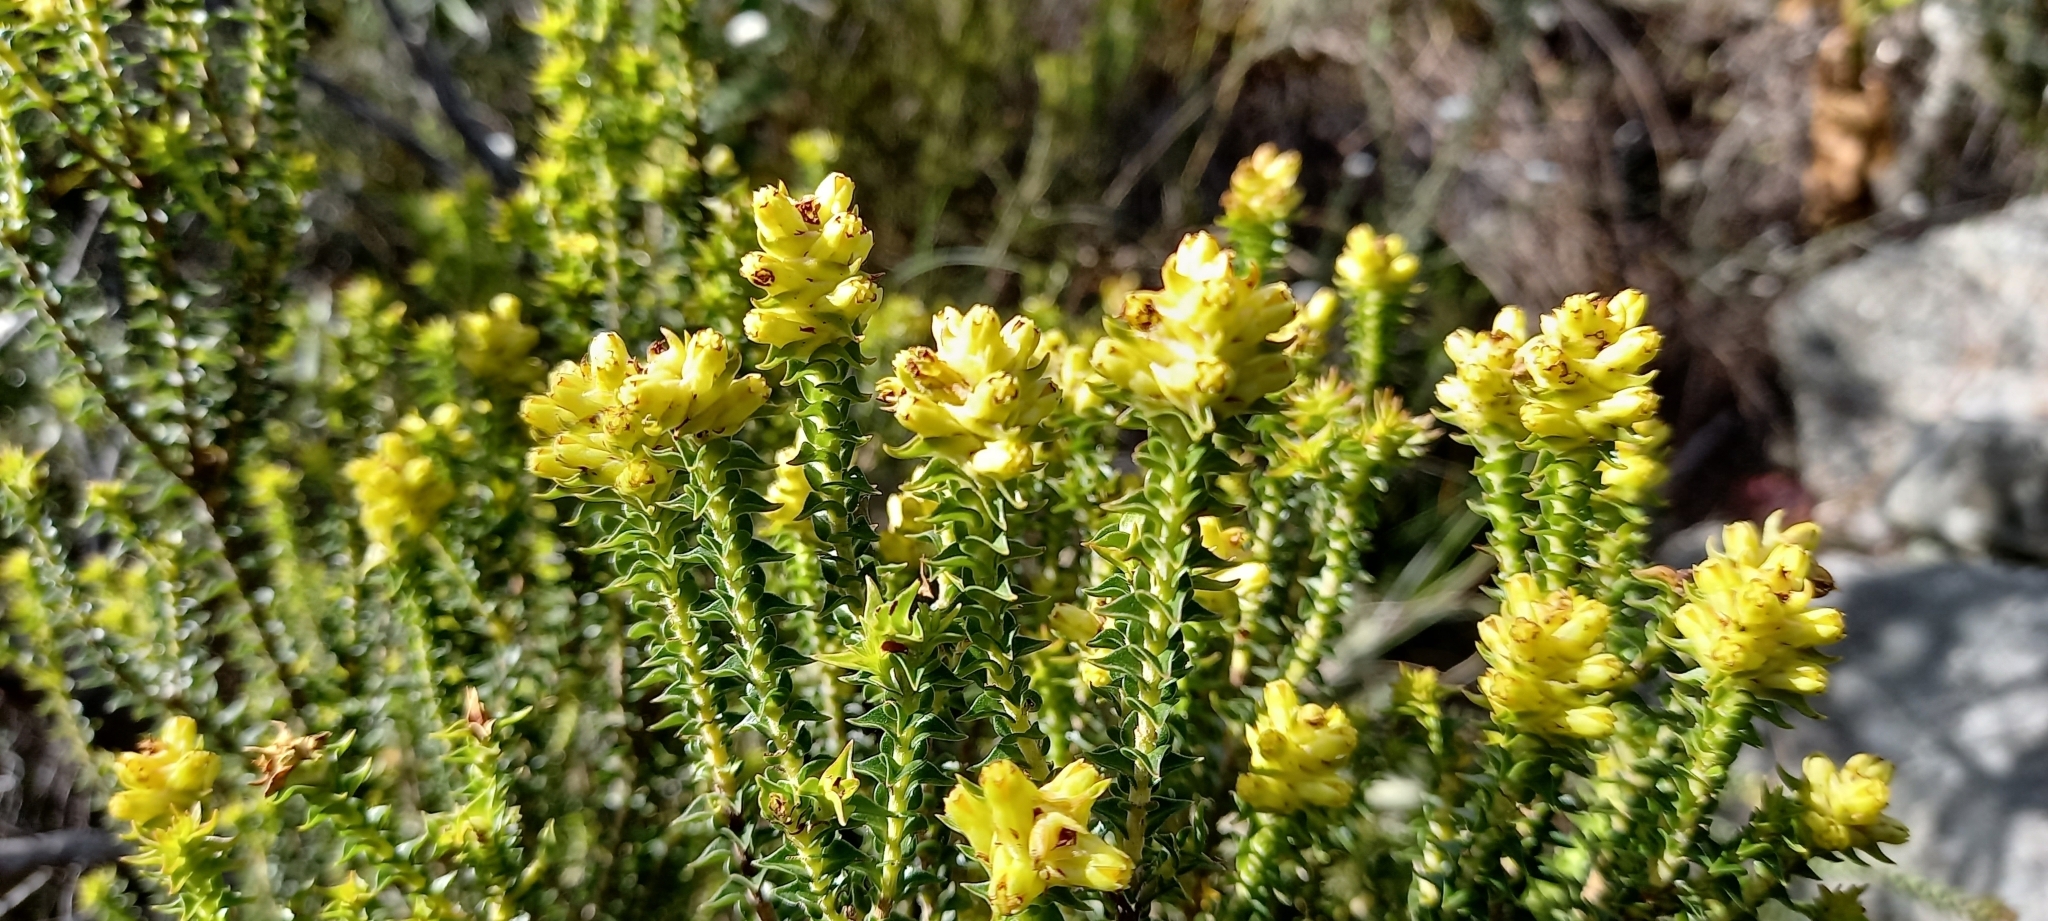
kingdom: Plantae
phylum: Tracheophyta
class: Magnoliopsida
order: Myrtales
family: Penaeaceae
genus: Penaea
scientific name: Penaea mucronata
